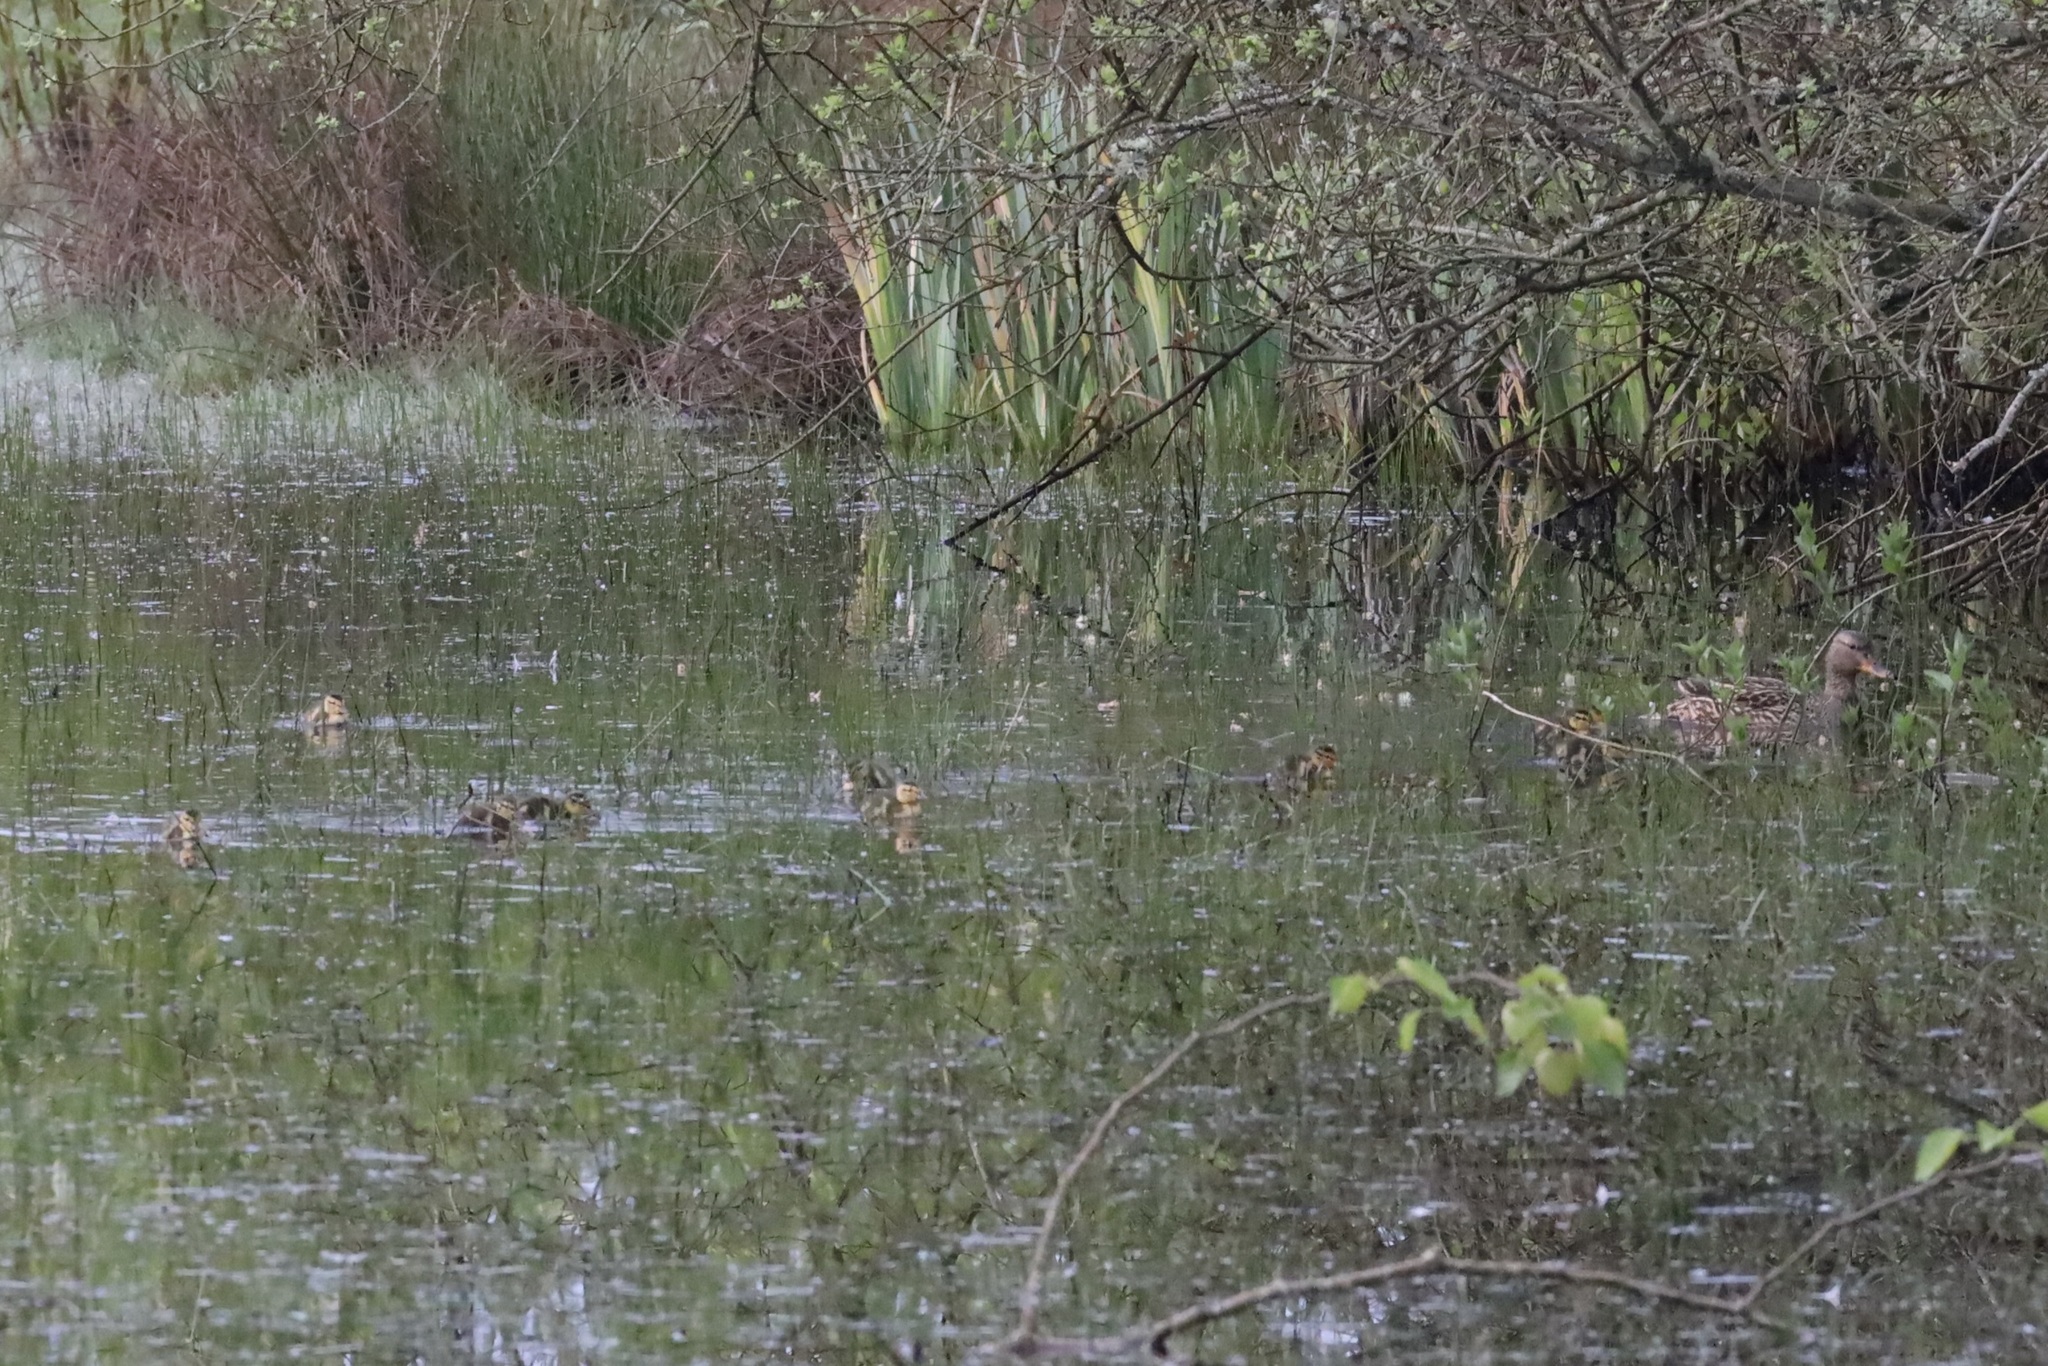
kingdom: Animalia
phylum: Chordata
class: Aves
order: Anseriformes
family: Anatidae
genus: Anas
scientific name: Anas platyrhynchos
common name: Mallard
